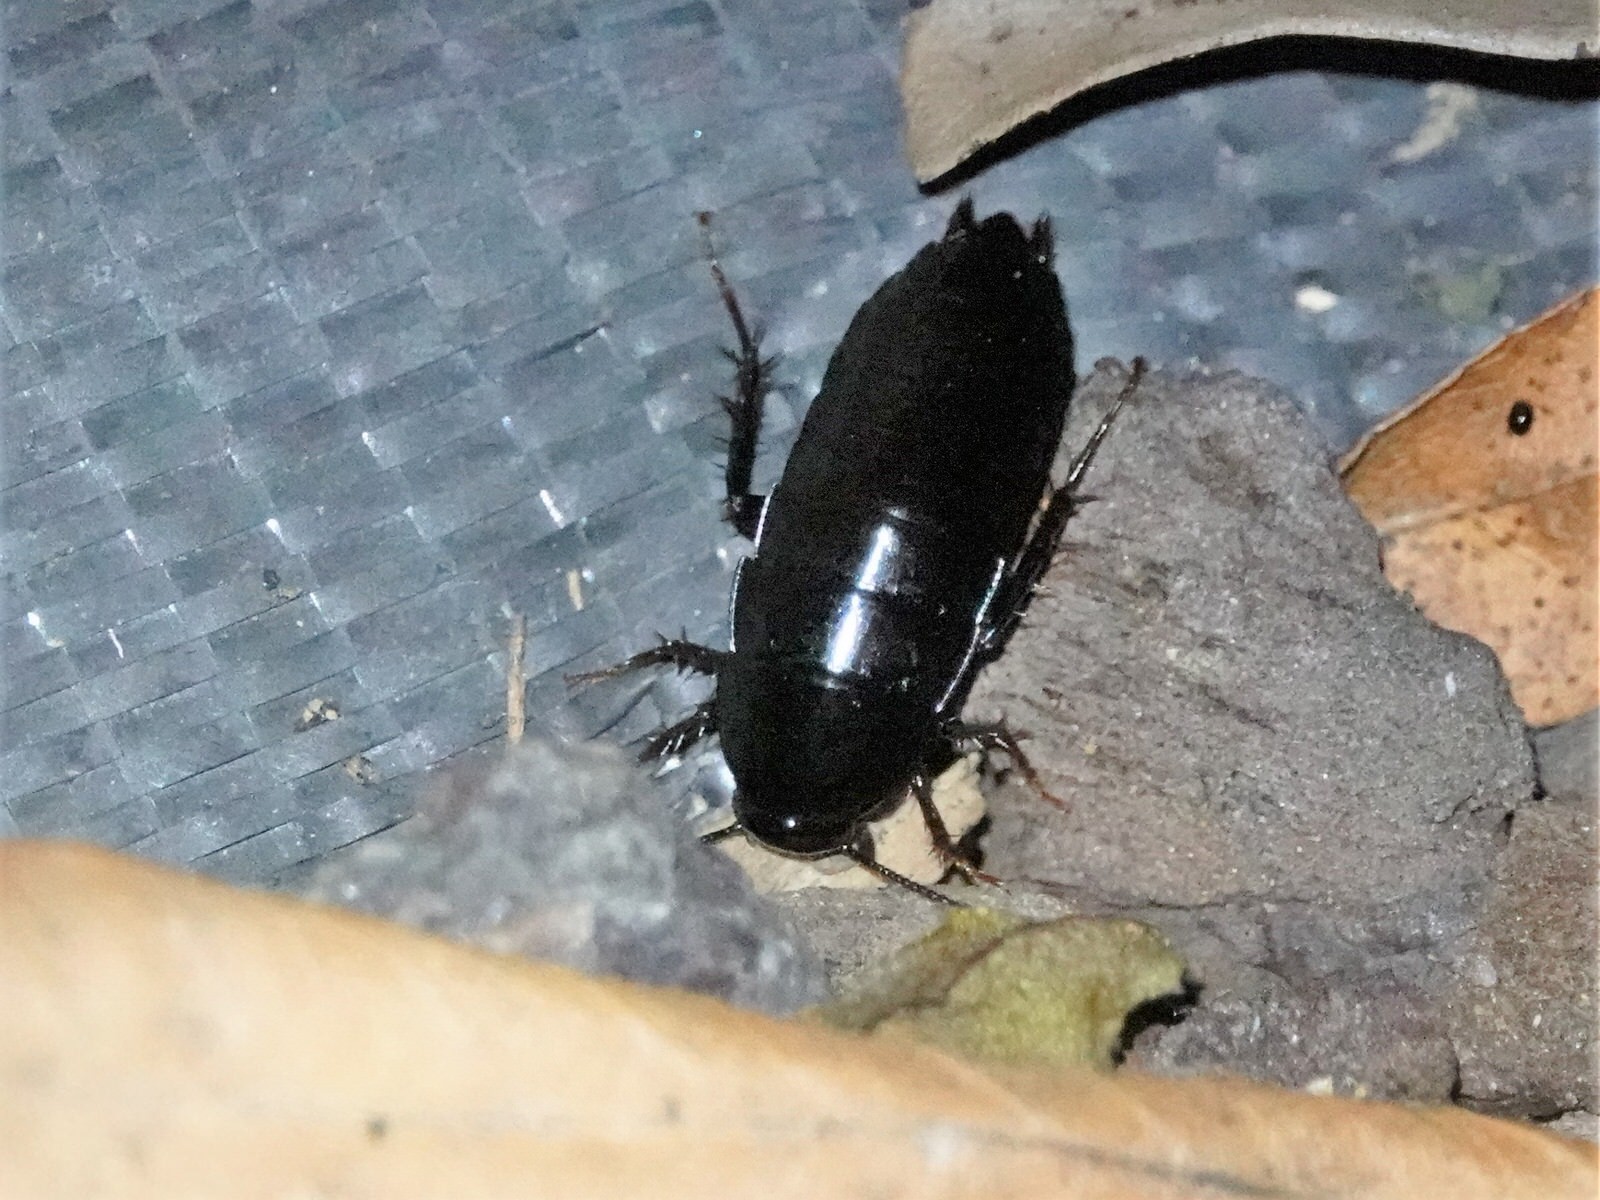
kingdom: Animalia
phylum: Arthropoda
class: Insecta
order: Blattodea
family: Blattidae
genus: Maoriblatta
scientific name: Maoriblatta novaeseelandiae
